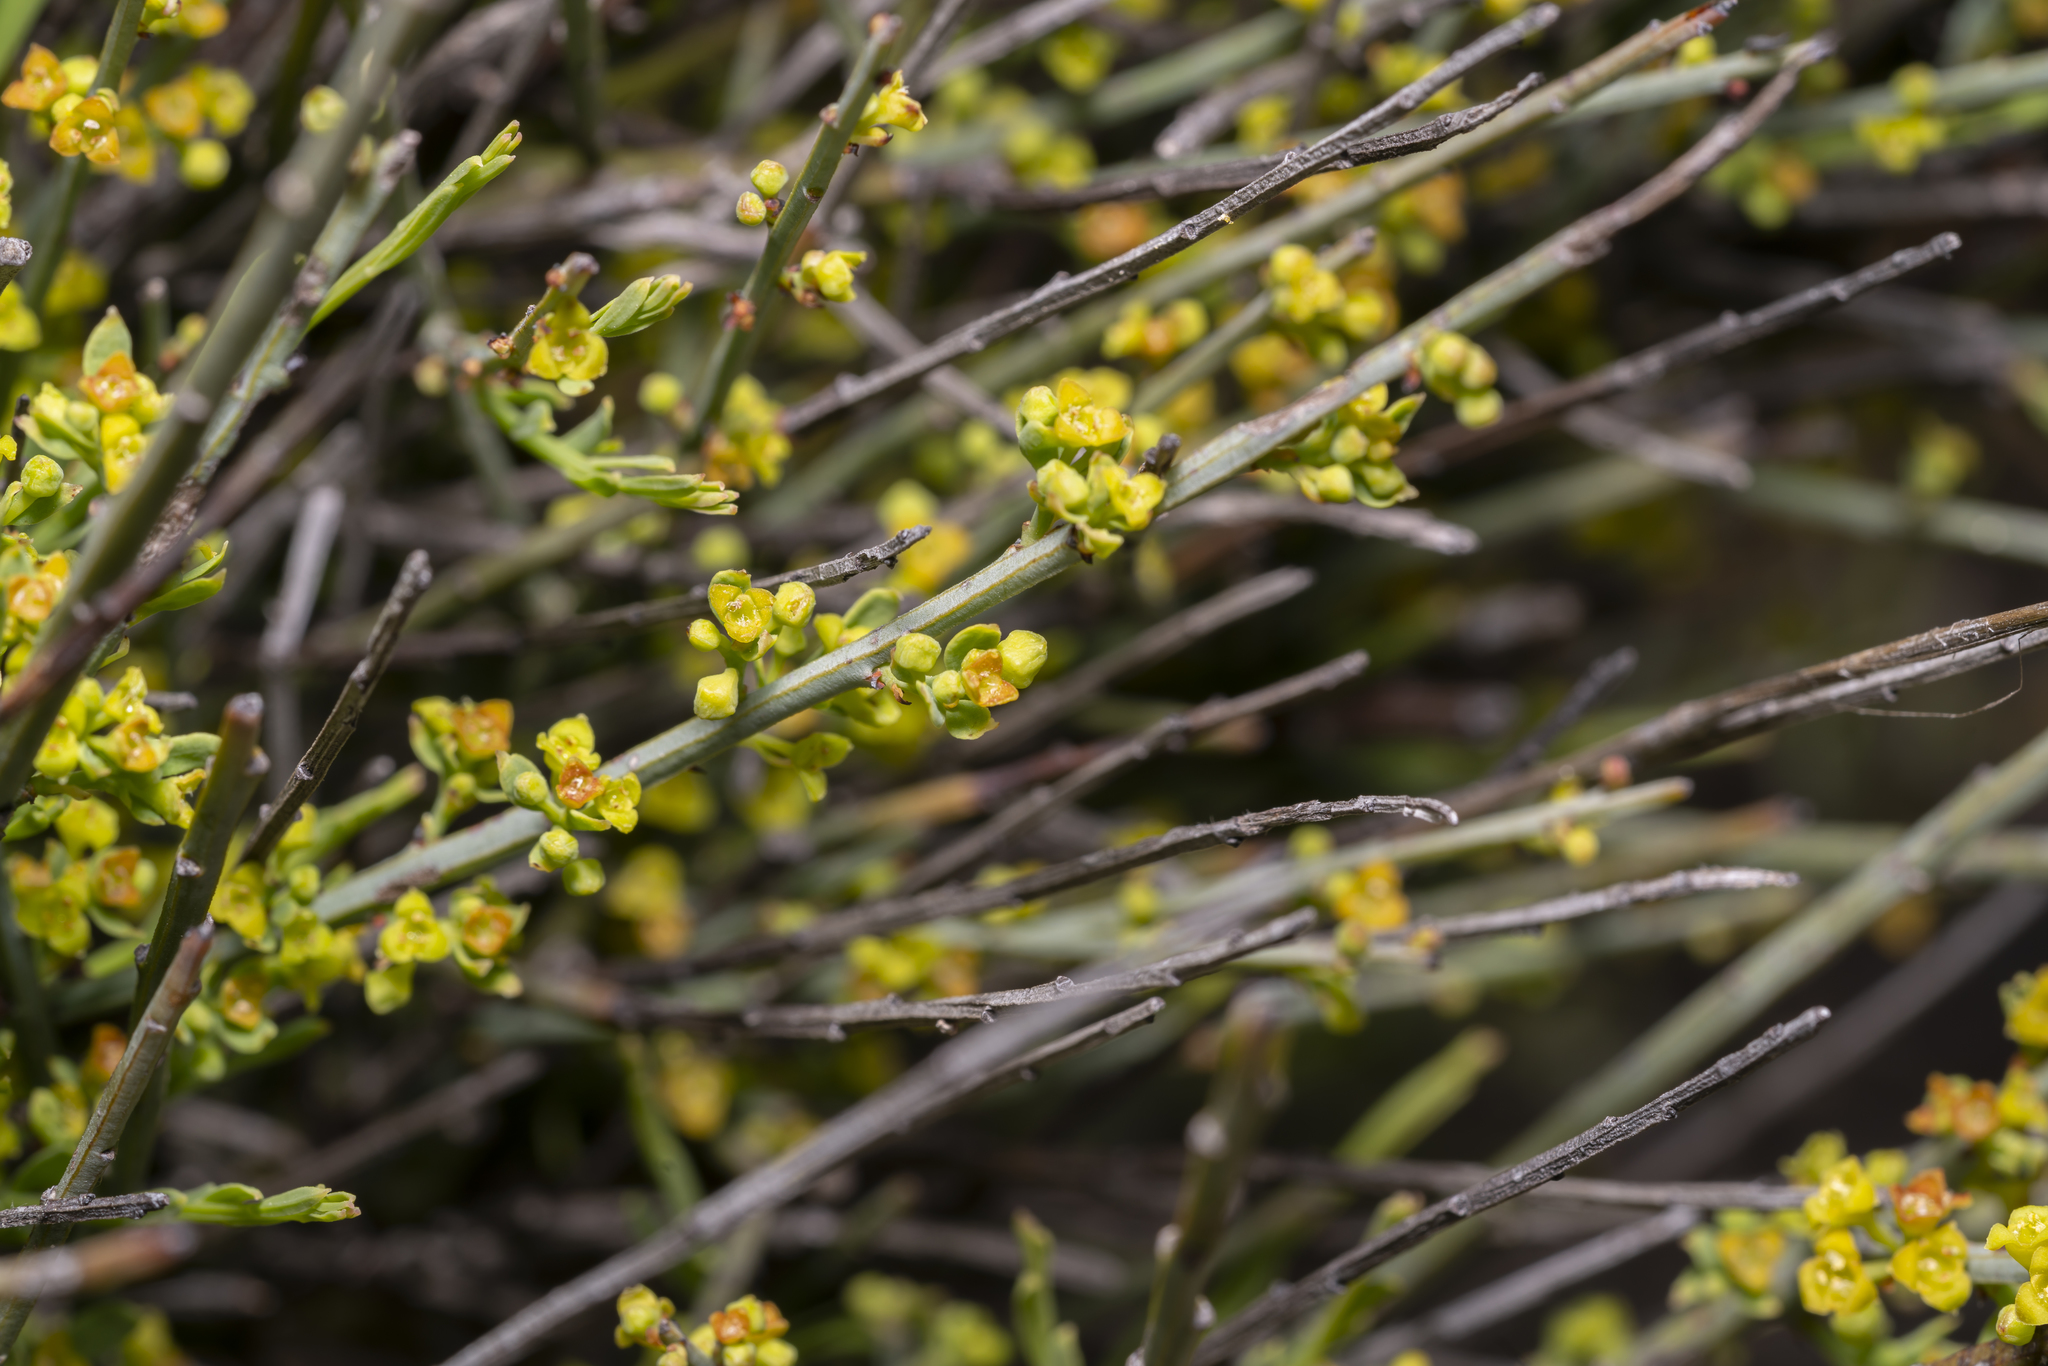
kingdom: Plantae
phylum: Tracheophyta
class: Magnoliopsida
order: Santalales
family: Santalaceae
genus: Osyris
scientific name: Osyris alba
